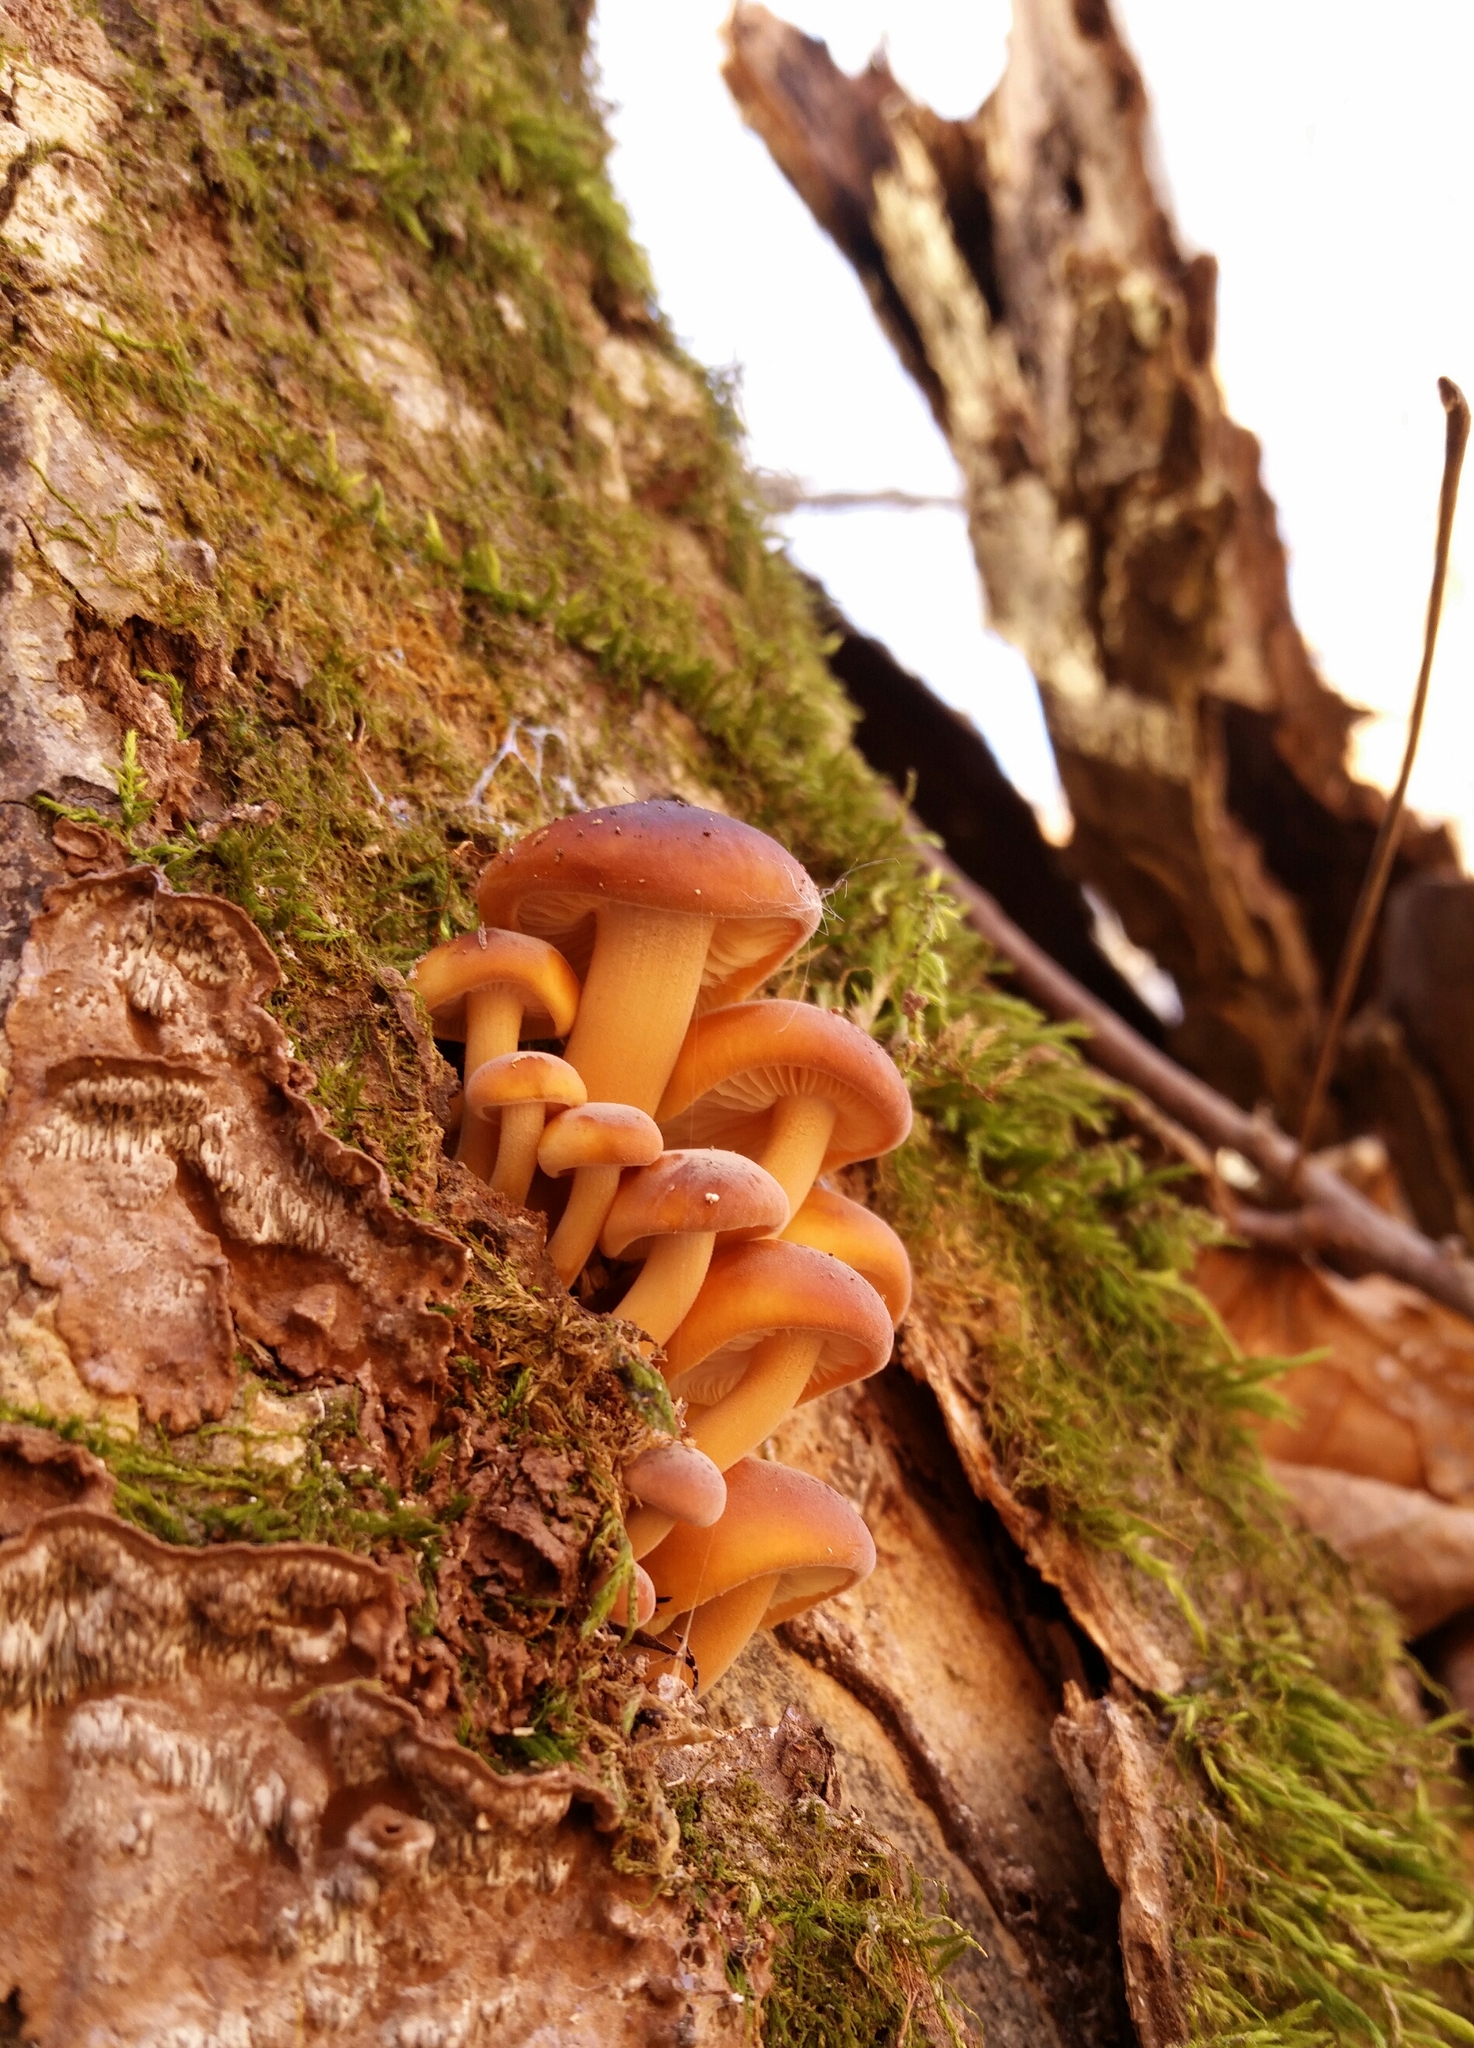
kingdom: Fungi
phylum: Basidiomycota
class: Agaricomycetes
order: Agaricales
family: Physalacriaceae
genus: Flammulina
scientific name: Flammulina velutipes
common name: Velvet shank
